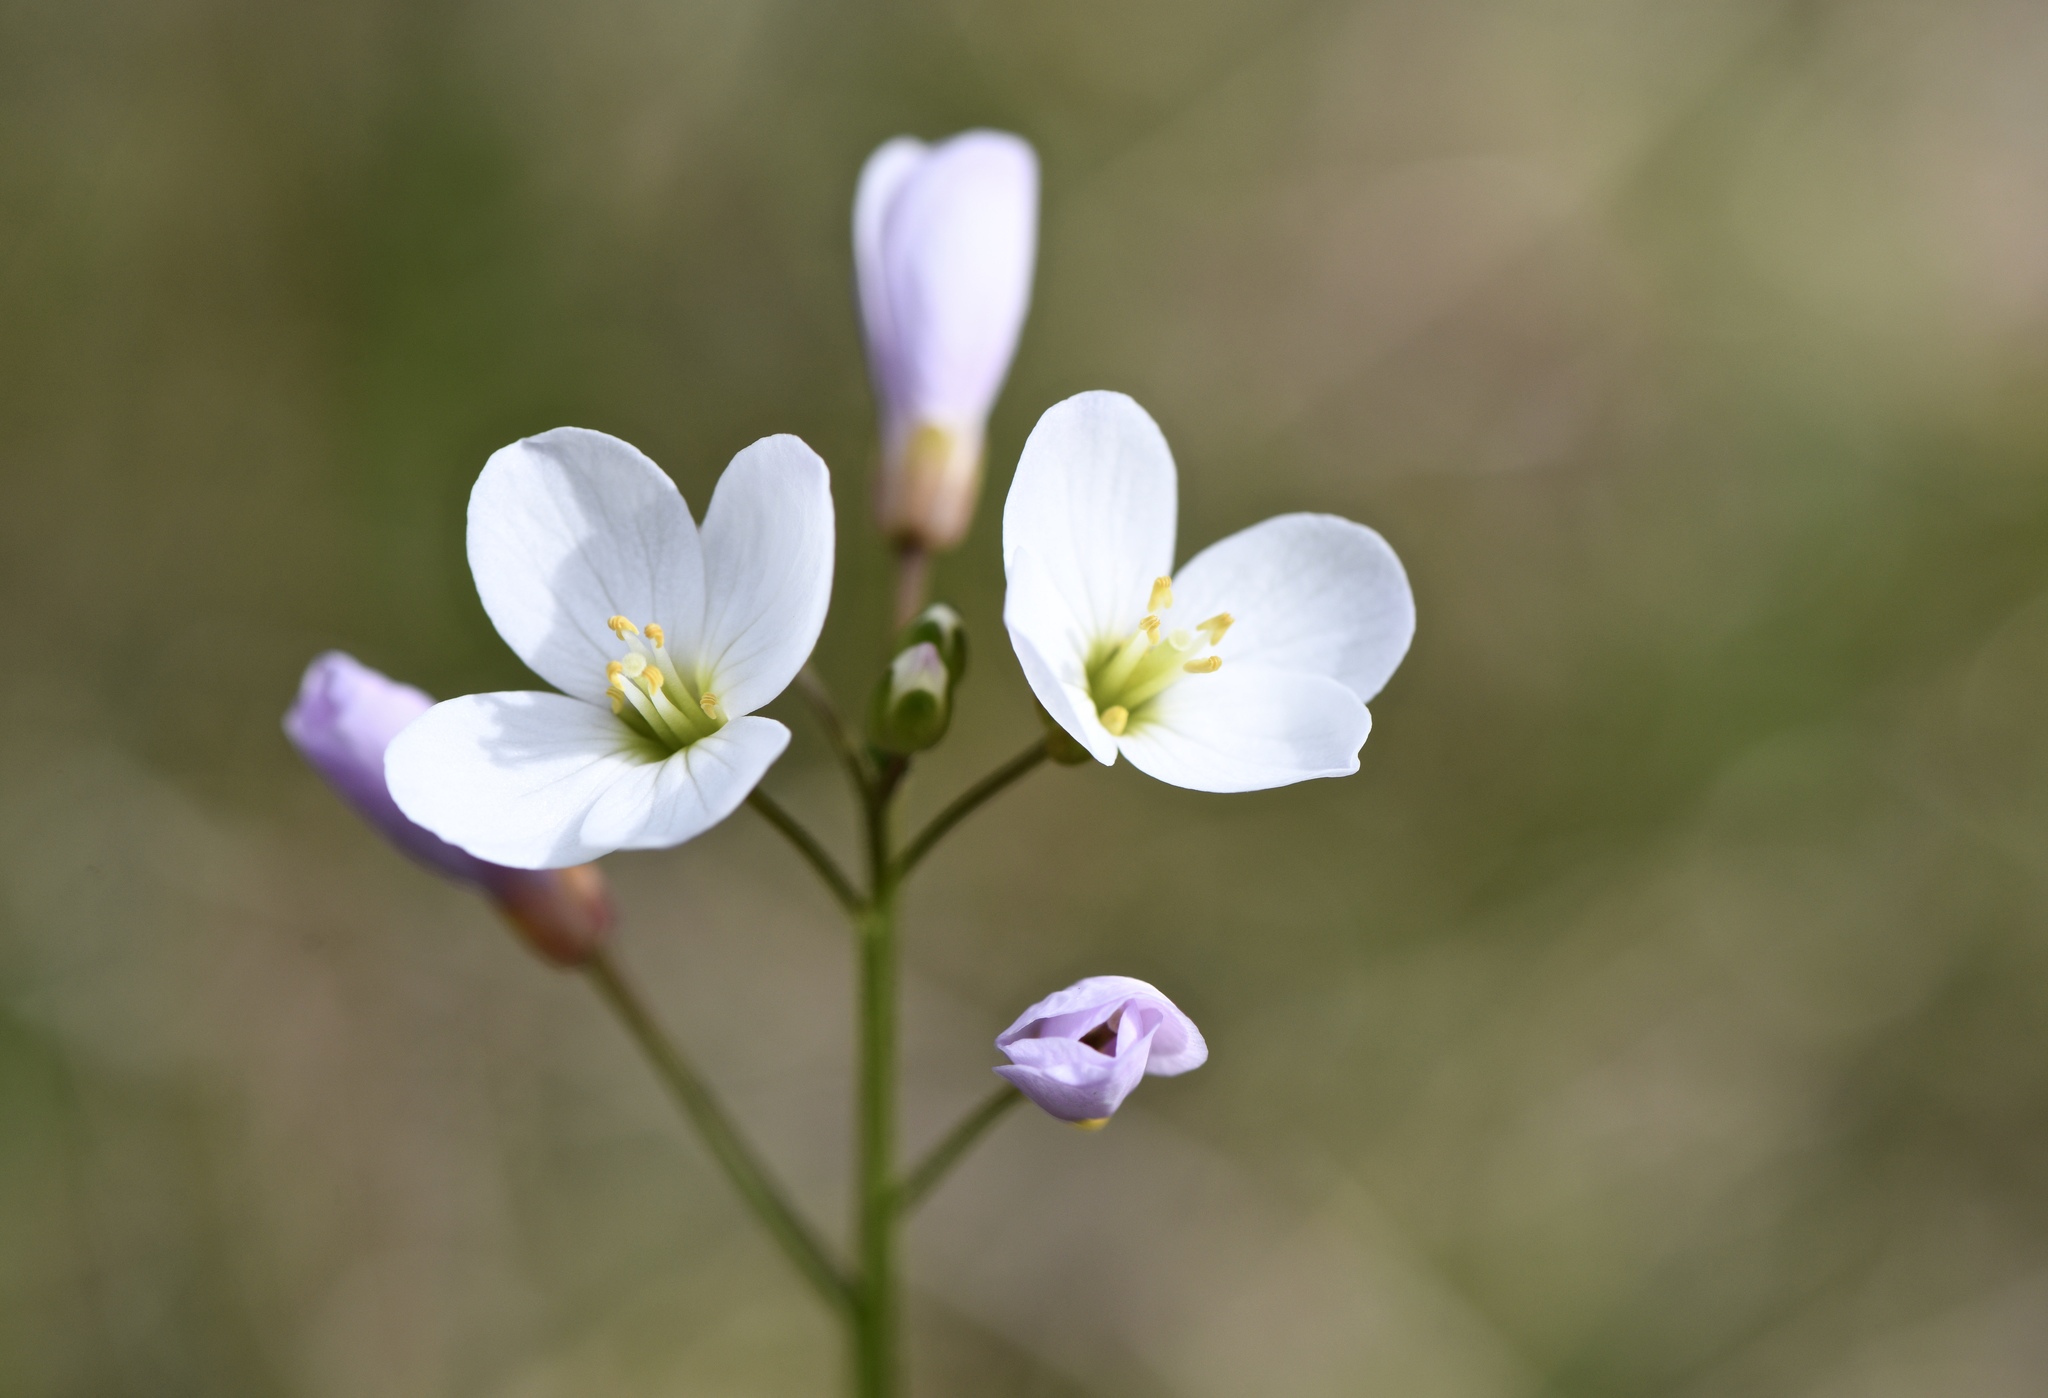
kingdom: Plantae
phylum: Tracheophyta
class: Magnoliopsida
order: Brassicales
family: Brassicaceae
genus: Cardamine
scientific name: Cardamine californica
